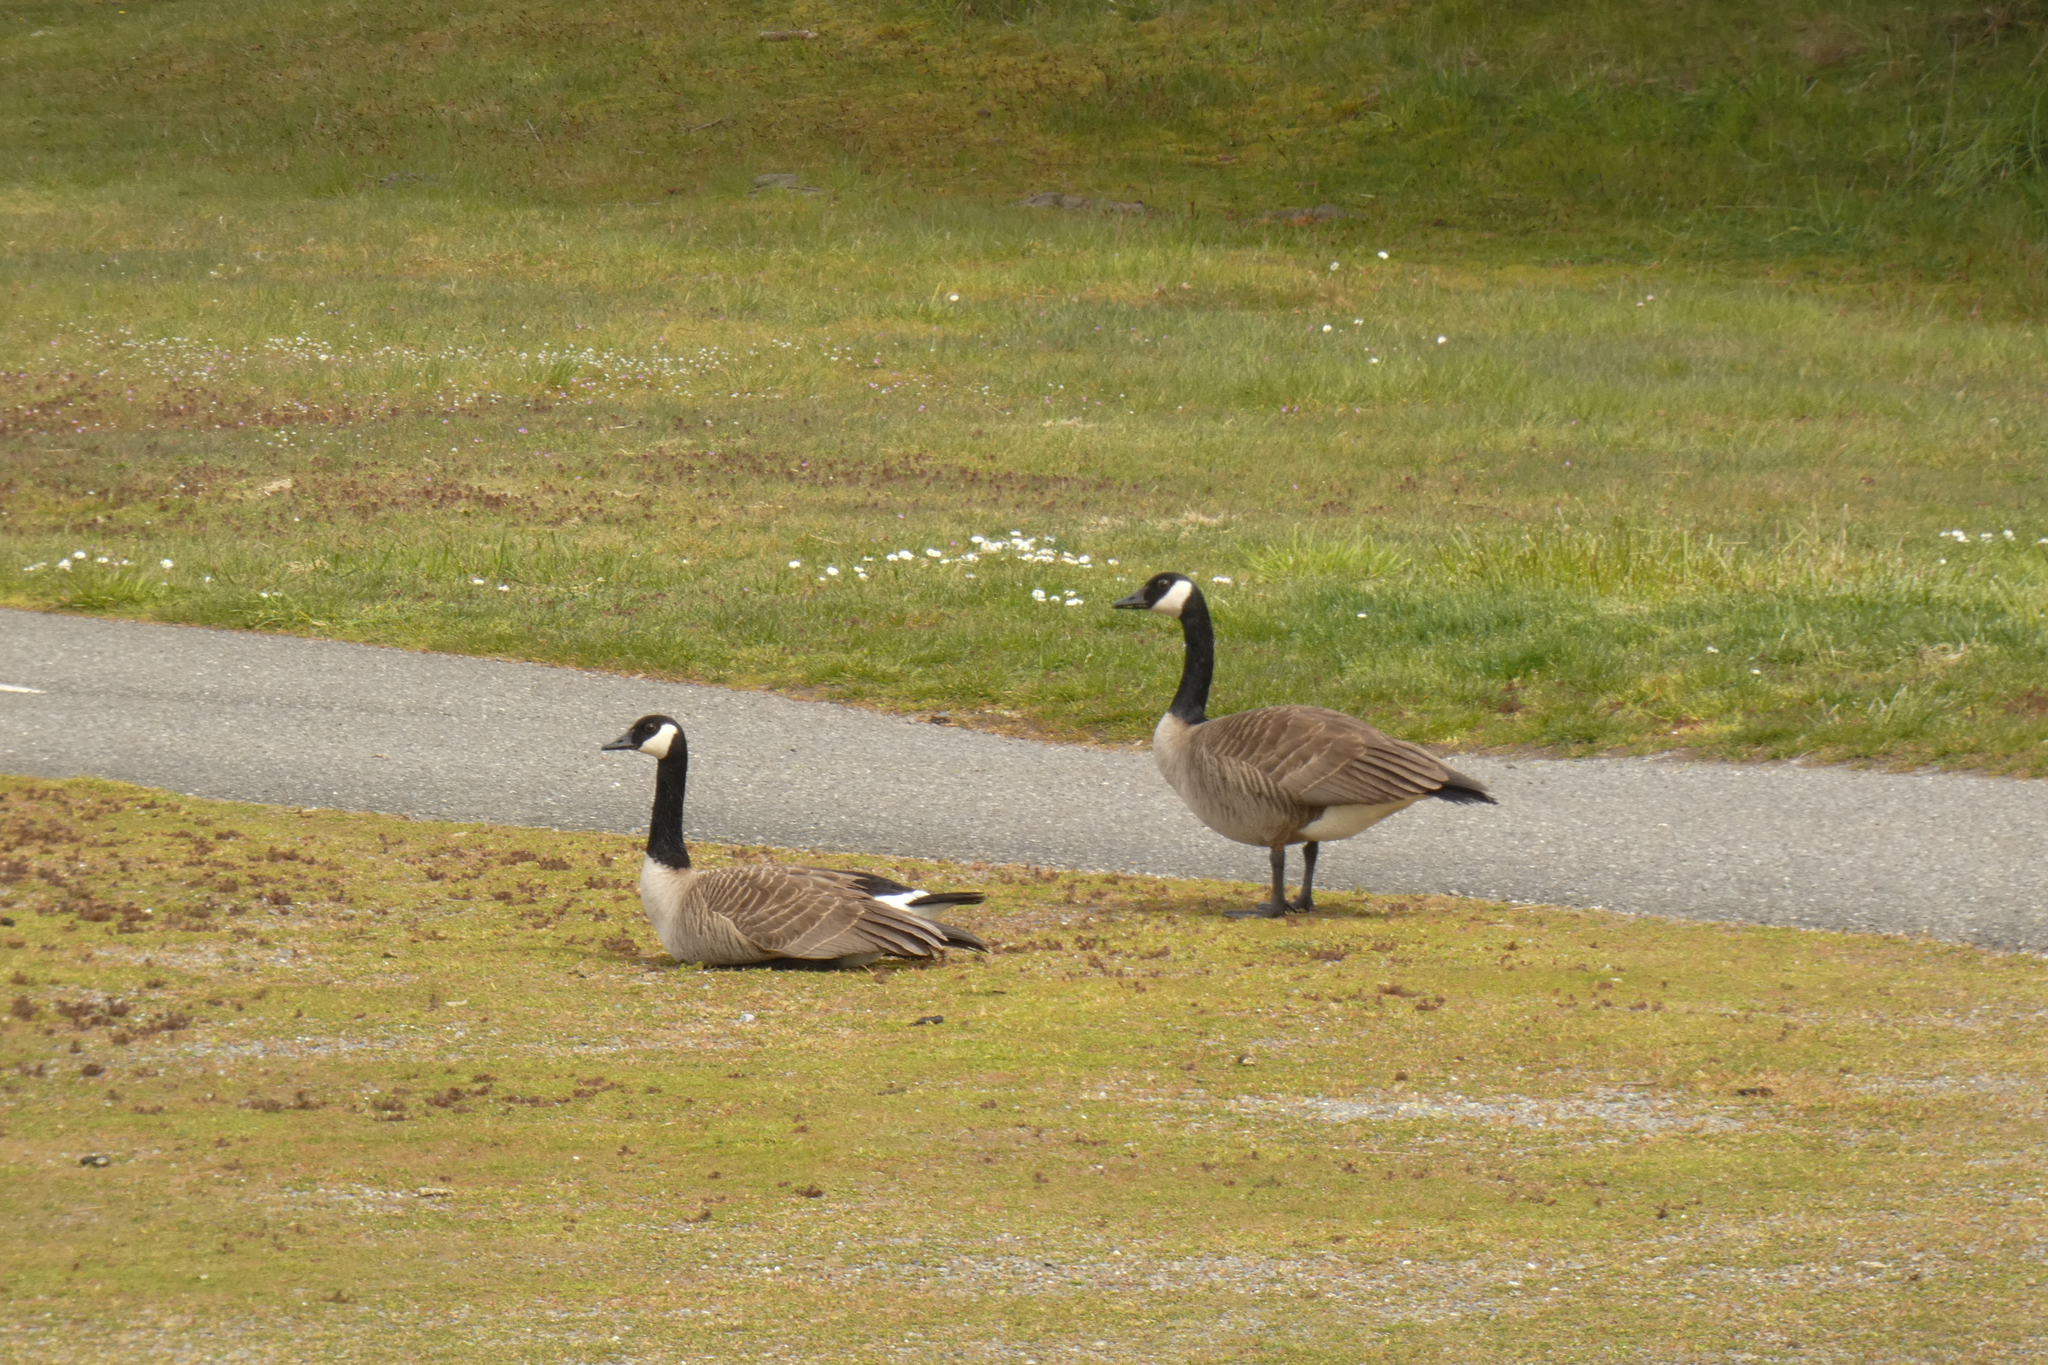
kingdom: Animalia
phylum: Chordata
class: Aves
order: Anseriformes
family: Anatidae
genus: Branta
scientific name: Branta canadensis
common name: Canada goose
